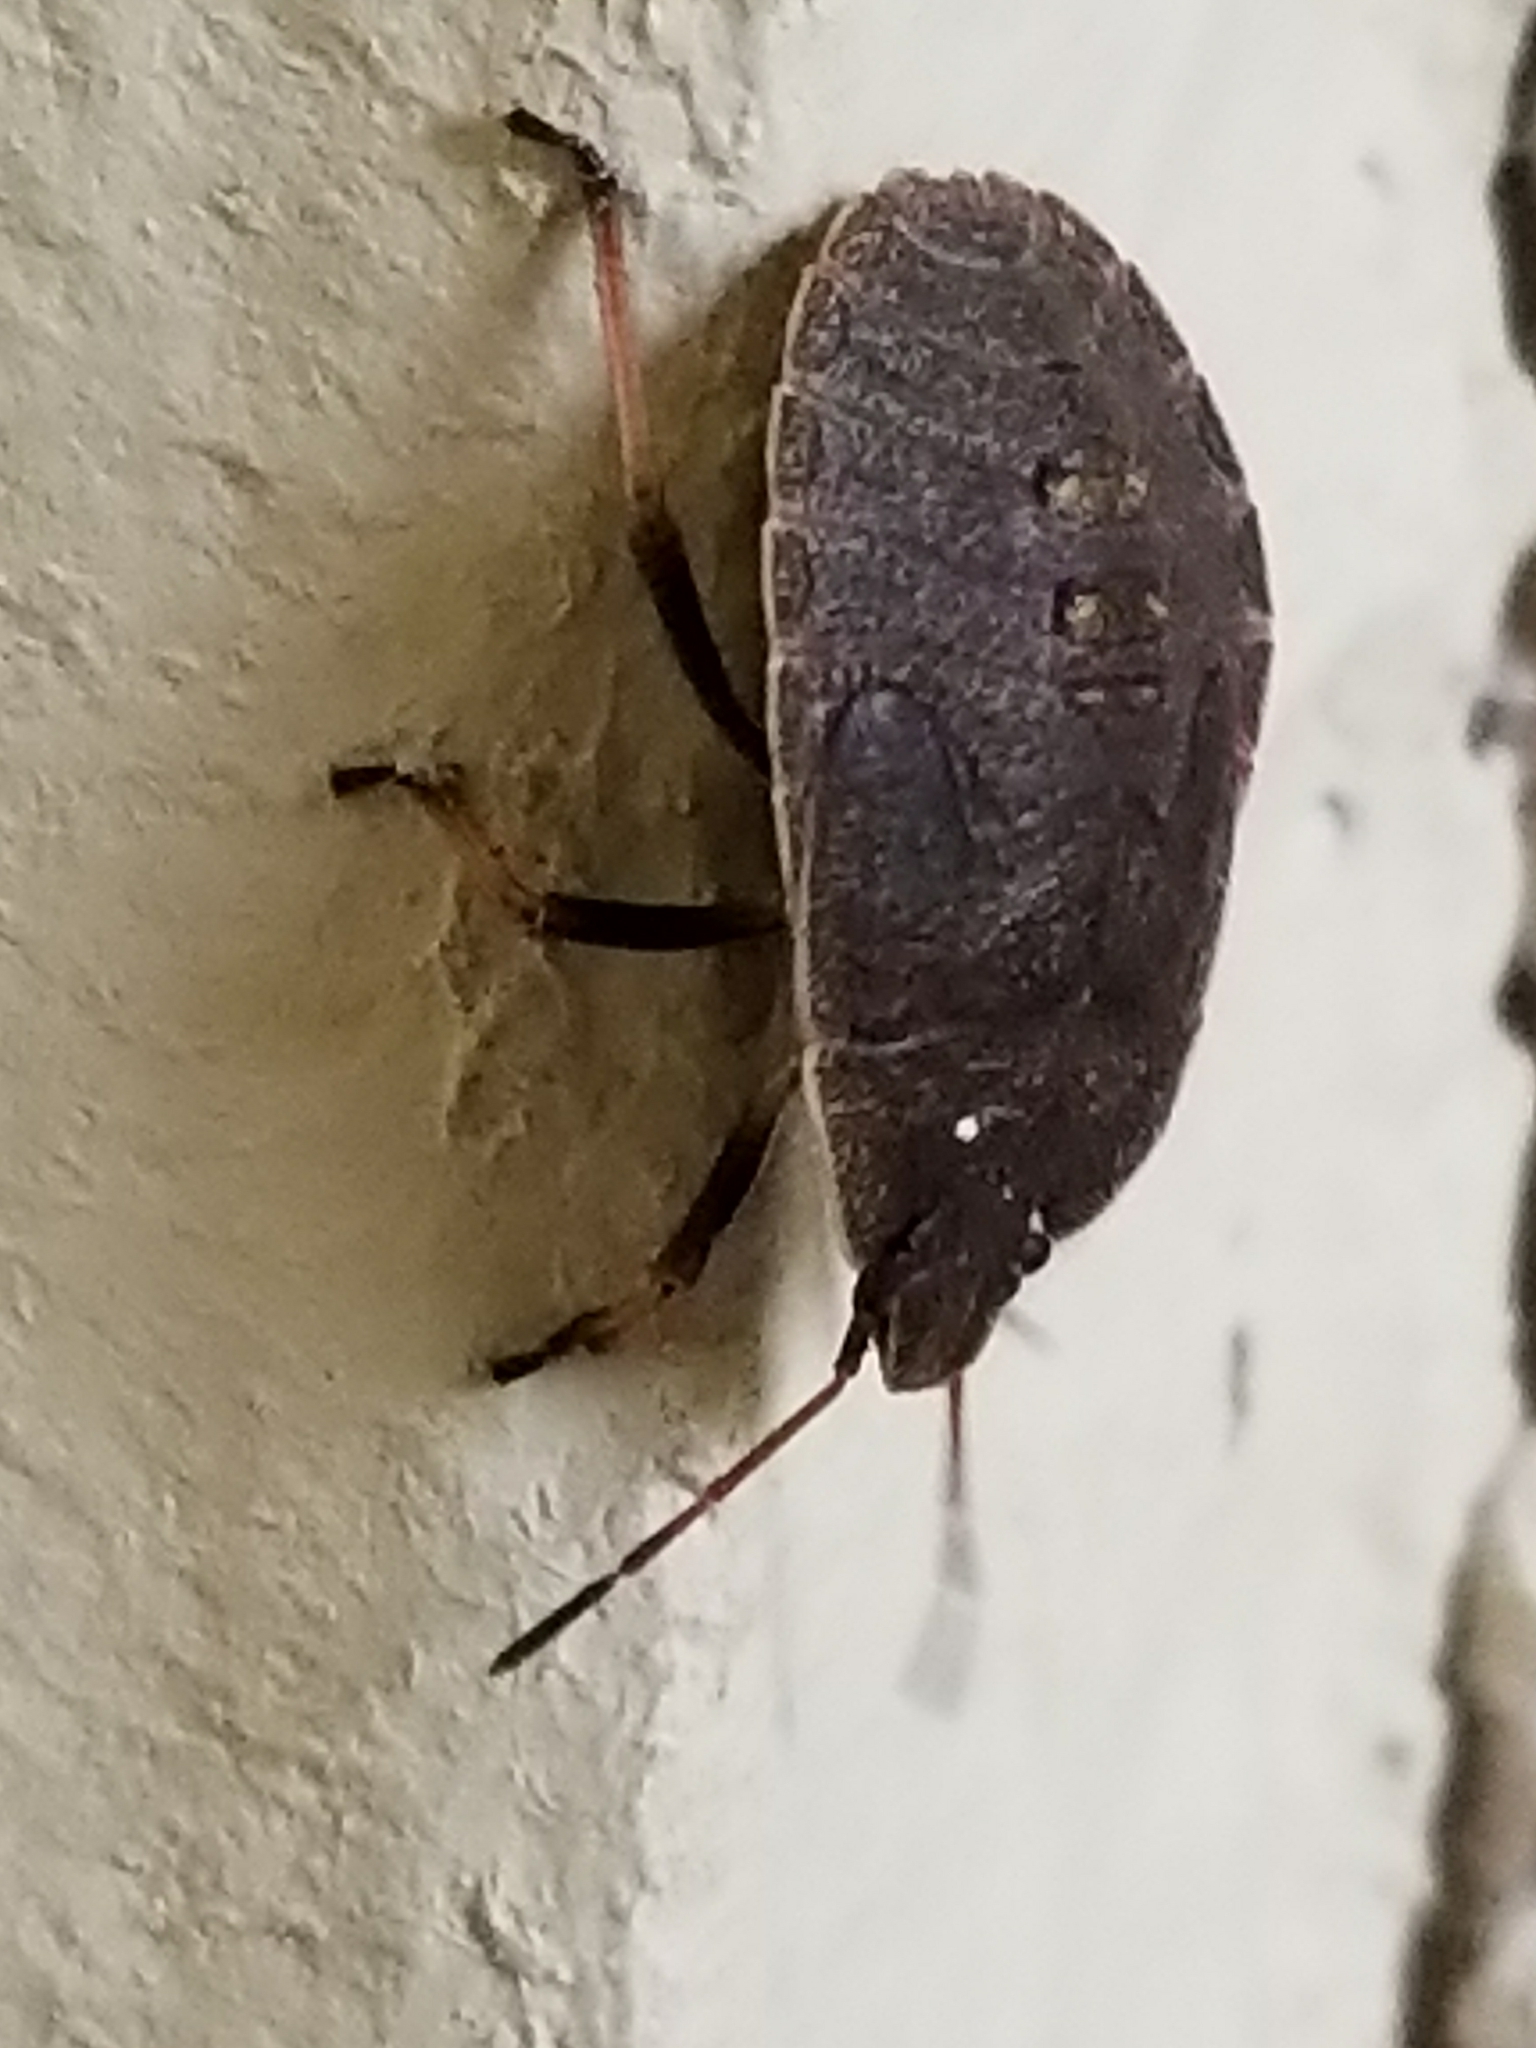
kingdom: Animalia
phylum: Arthropoda
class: Insecta
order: Hemiptera
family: Pentatomidae
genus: Menecles
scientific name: Menecles insertus
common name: Elf shoe stink bug
